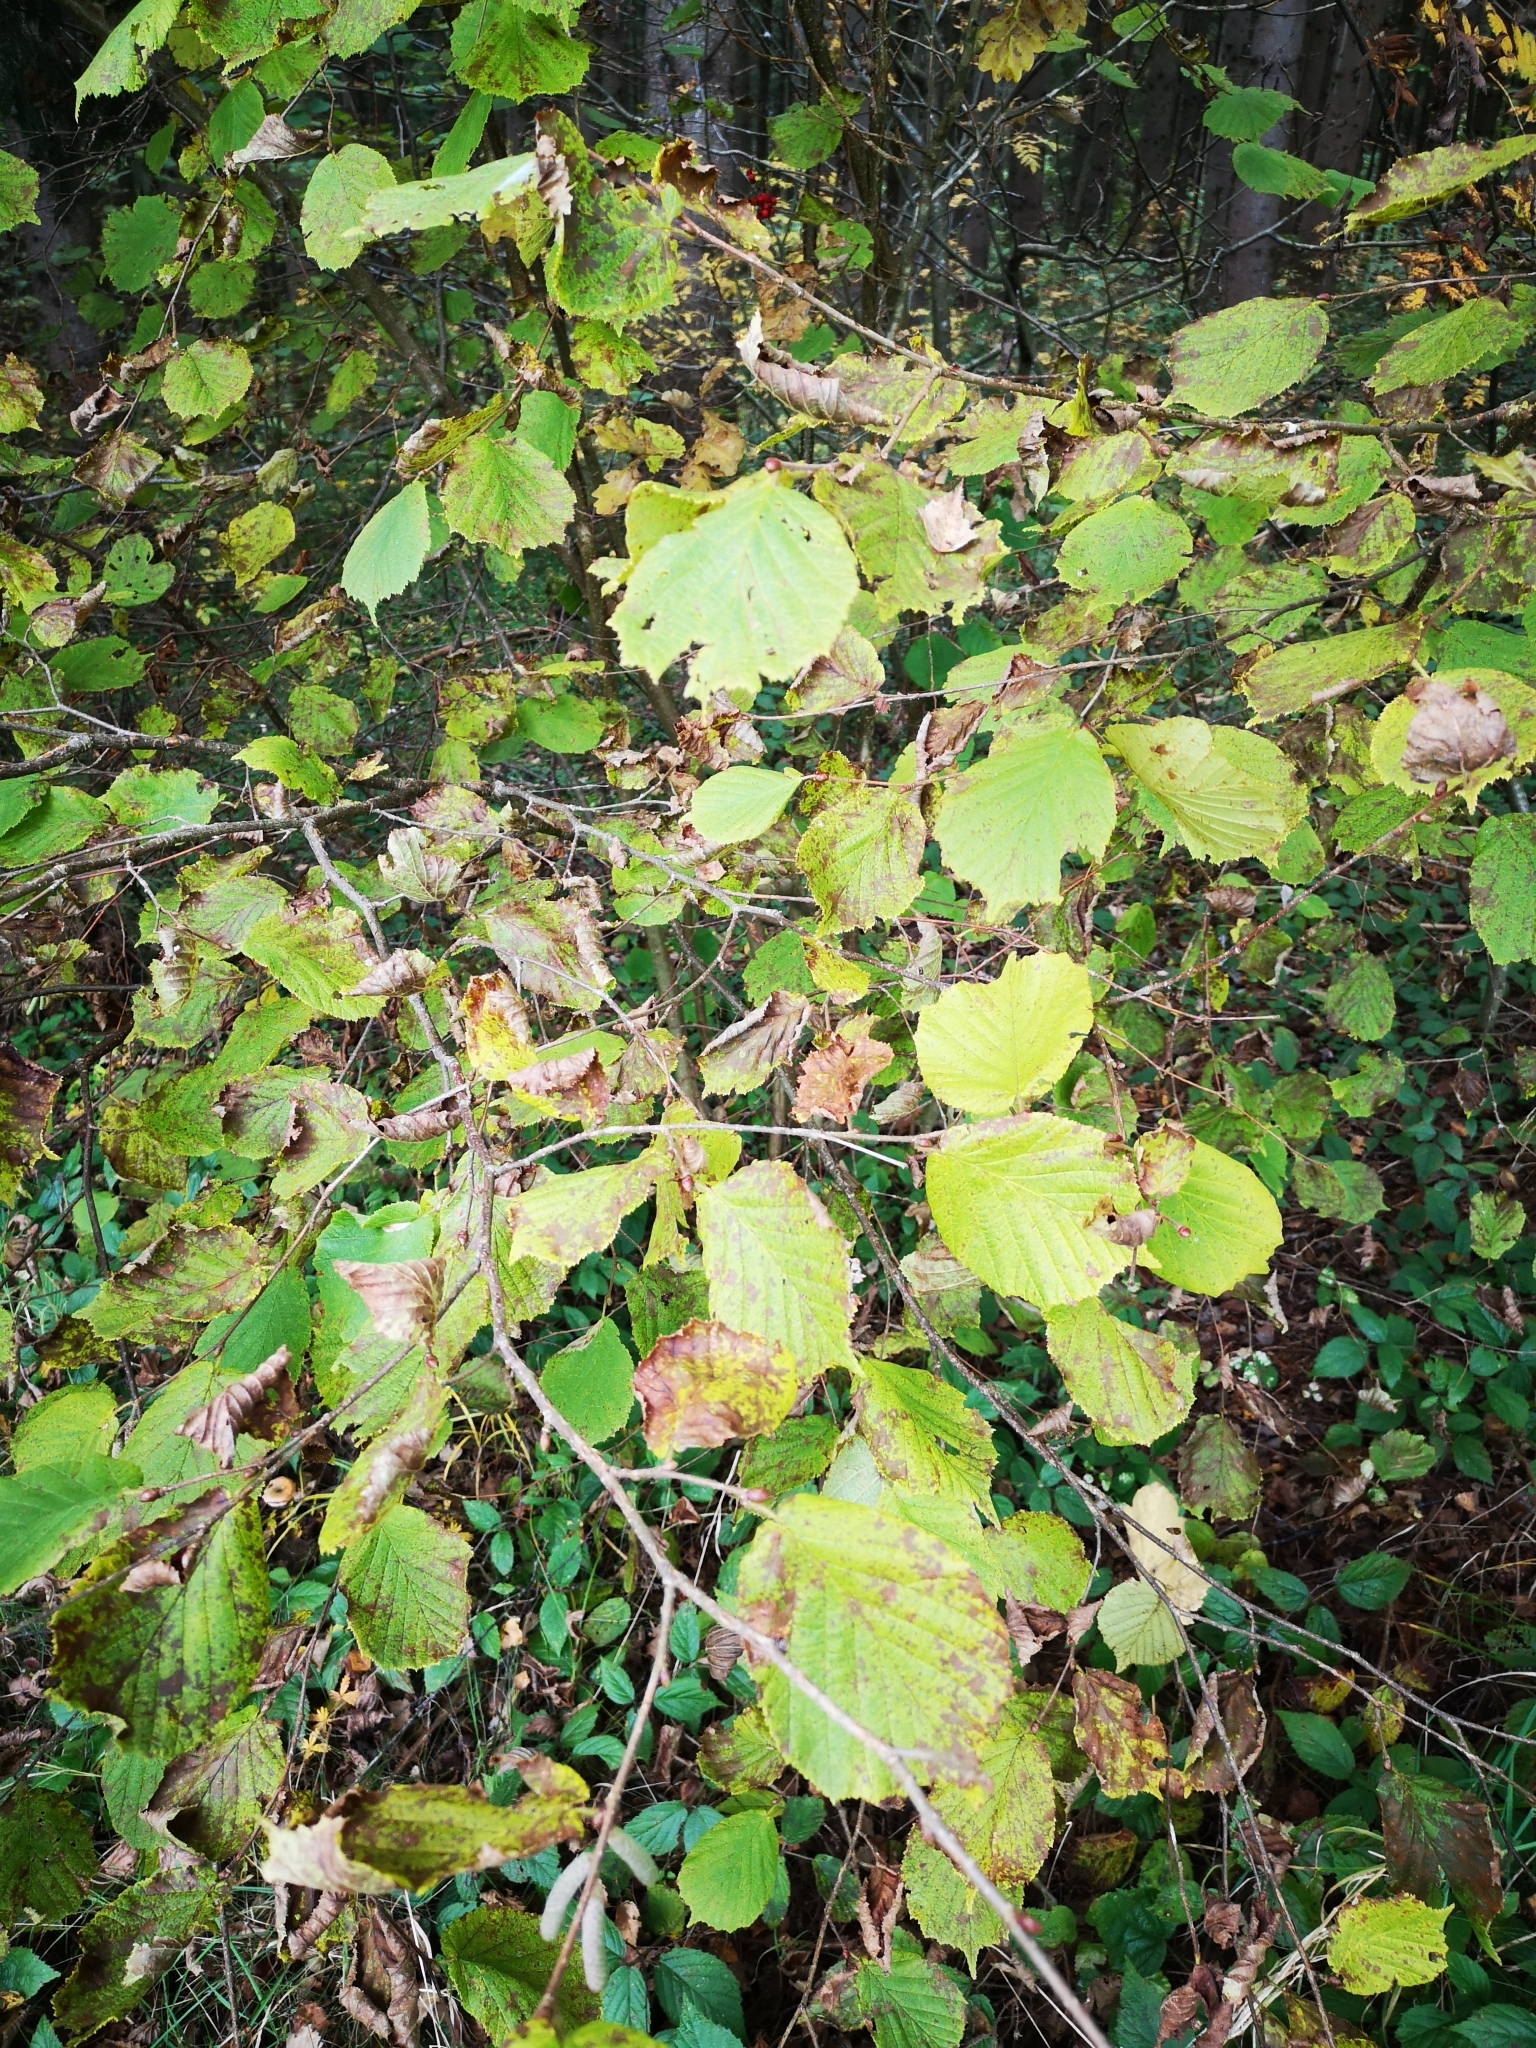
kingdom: Plantae
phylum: Tracheophyta
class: Magnoliopsida
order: Fagales
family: Betulaceae
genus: Corylus
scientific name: Corylus avellana
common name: European hazel
